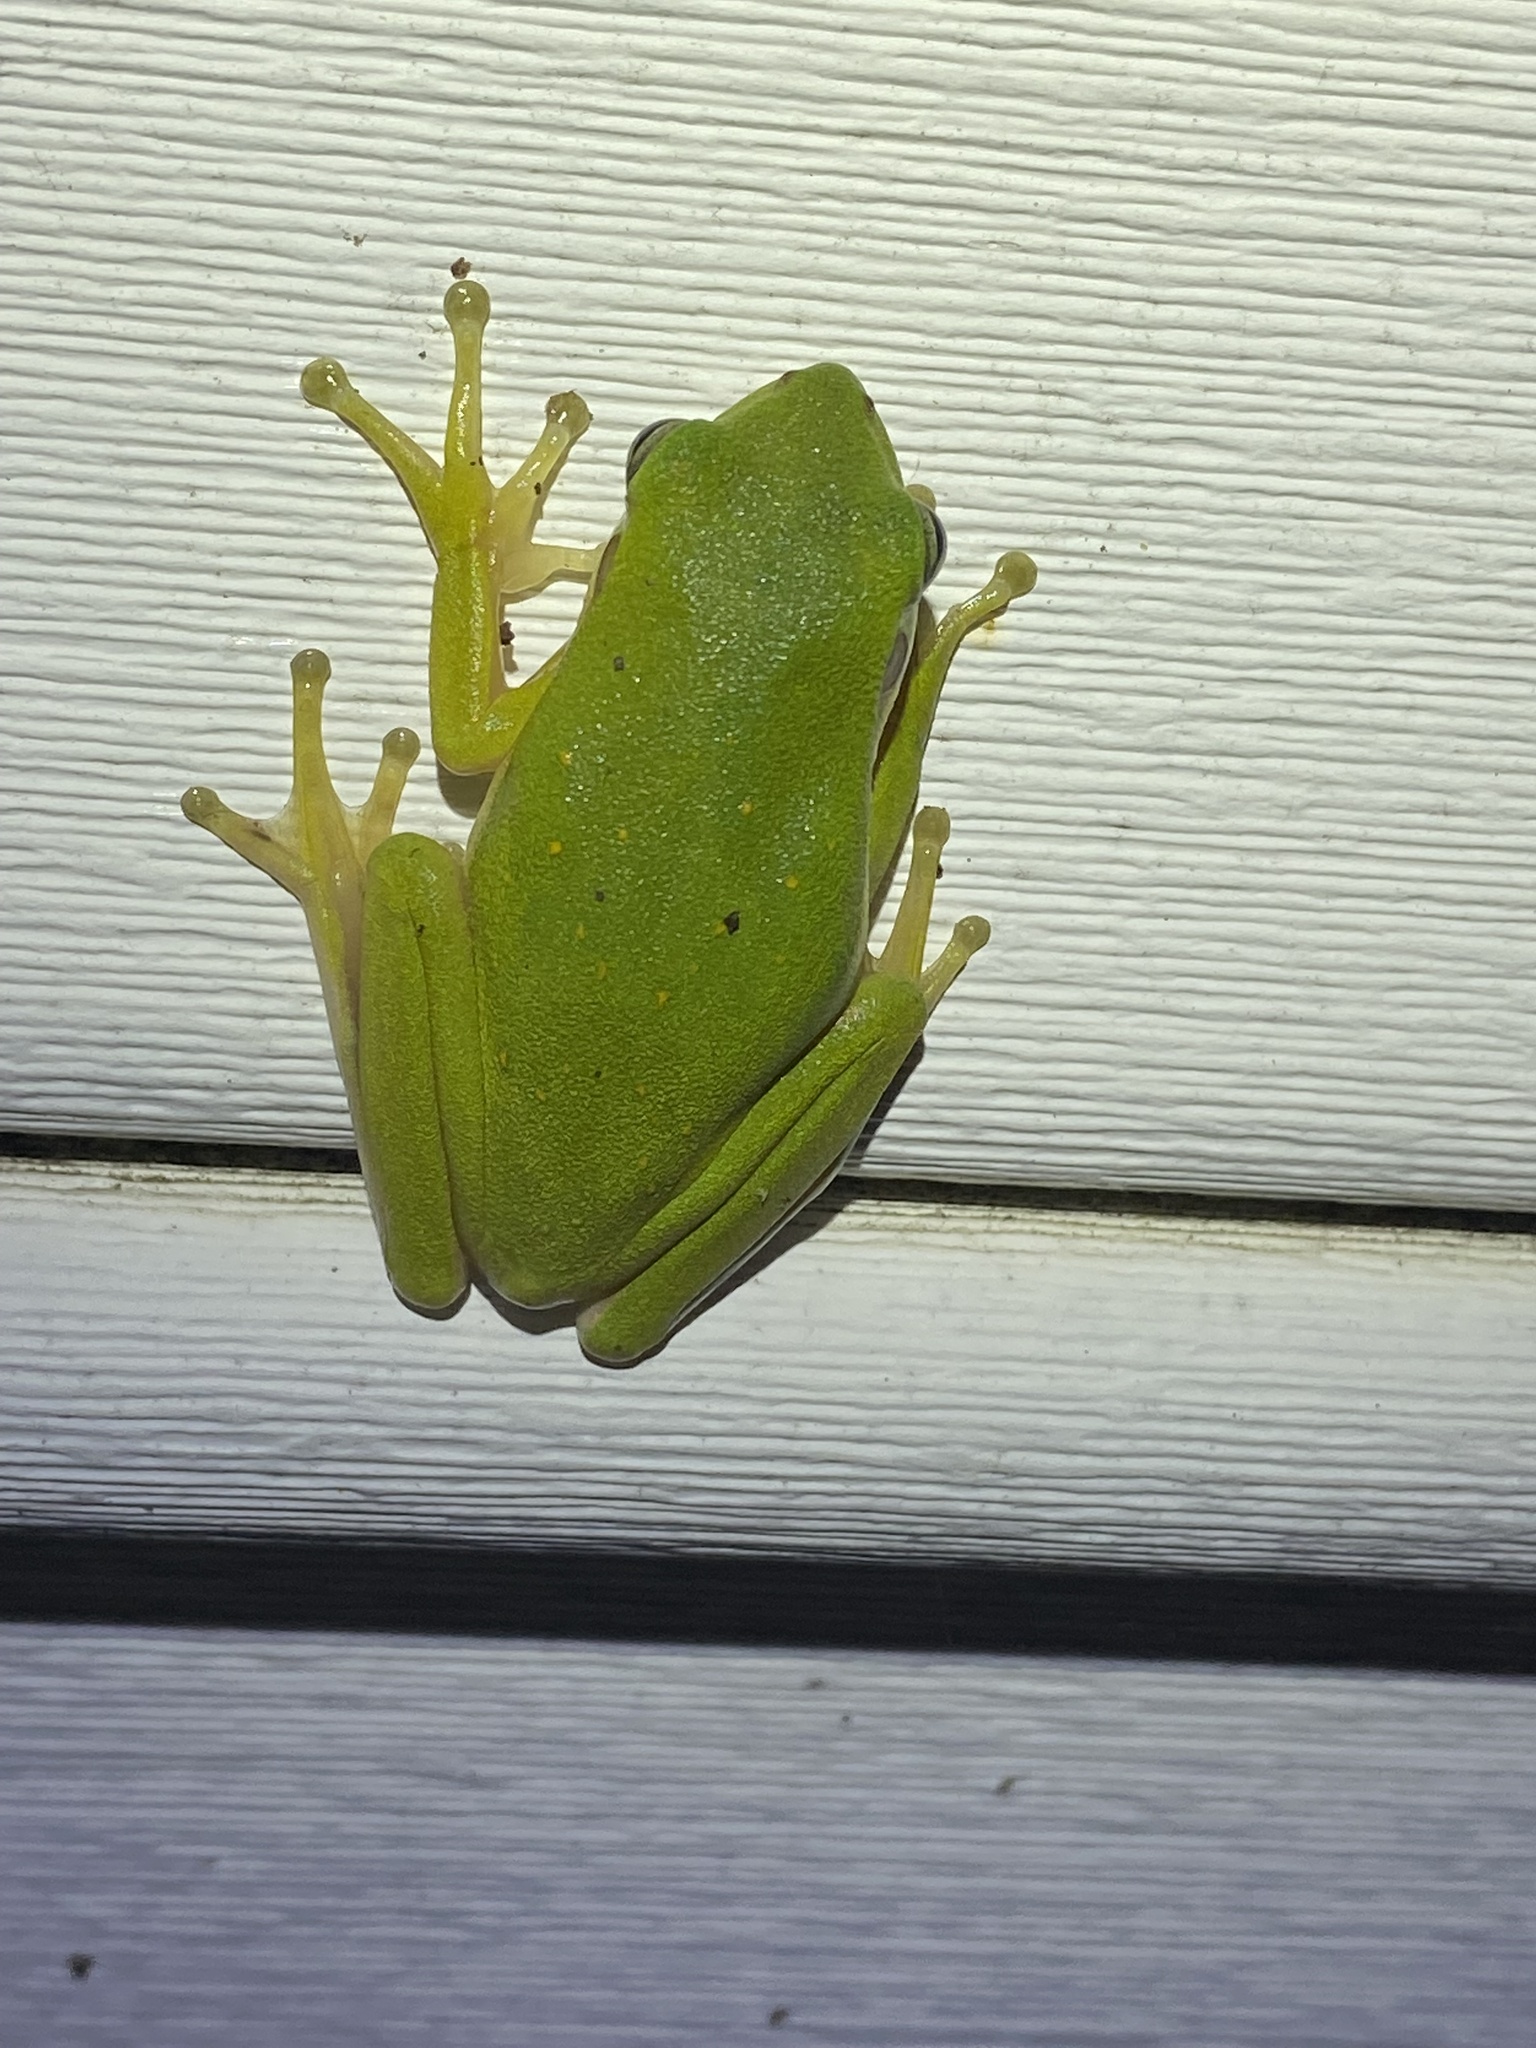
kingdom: Animalia
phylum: Chordata
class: Amphibia
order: Anura
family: Hylidae
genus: Dryophytes
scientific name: Dryophytes cinereus
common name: Green treefrog
